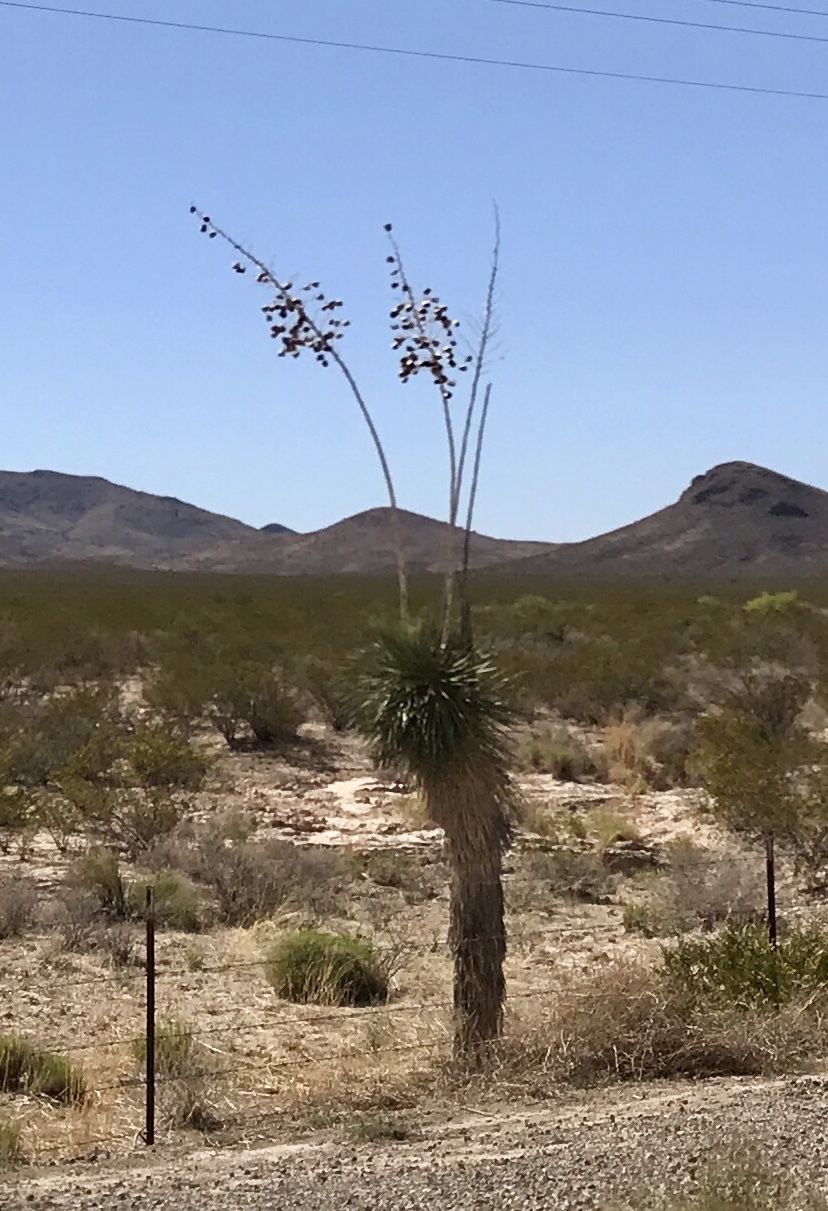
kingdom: Plantae
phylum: Tracheophyta
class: Liliopsida
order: Asparagales
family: Asparagaceae
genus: Yucca
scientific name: Yucca elata
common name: Palmella
